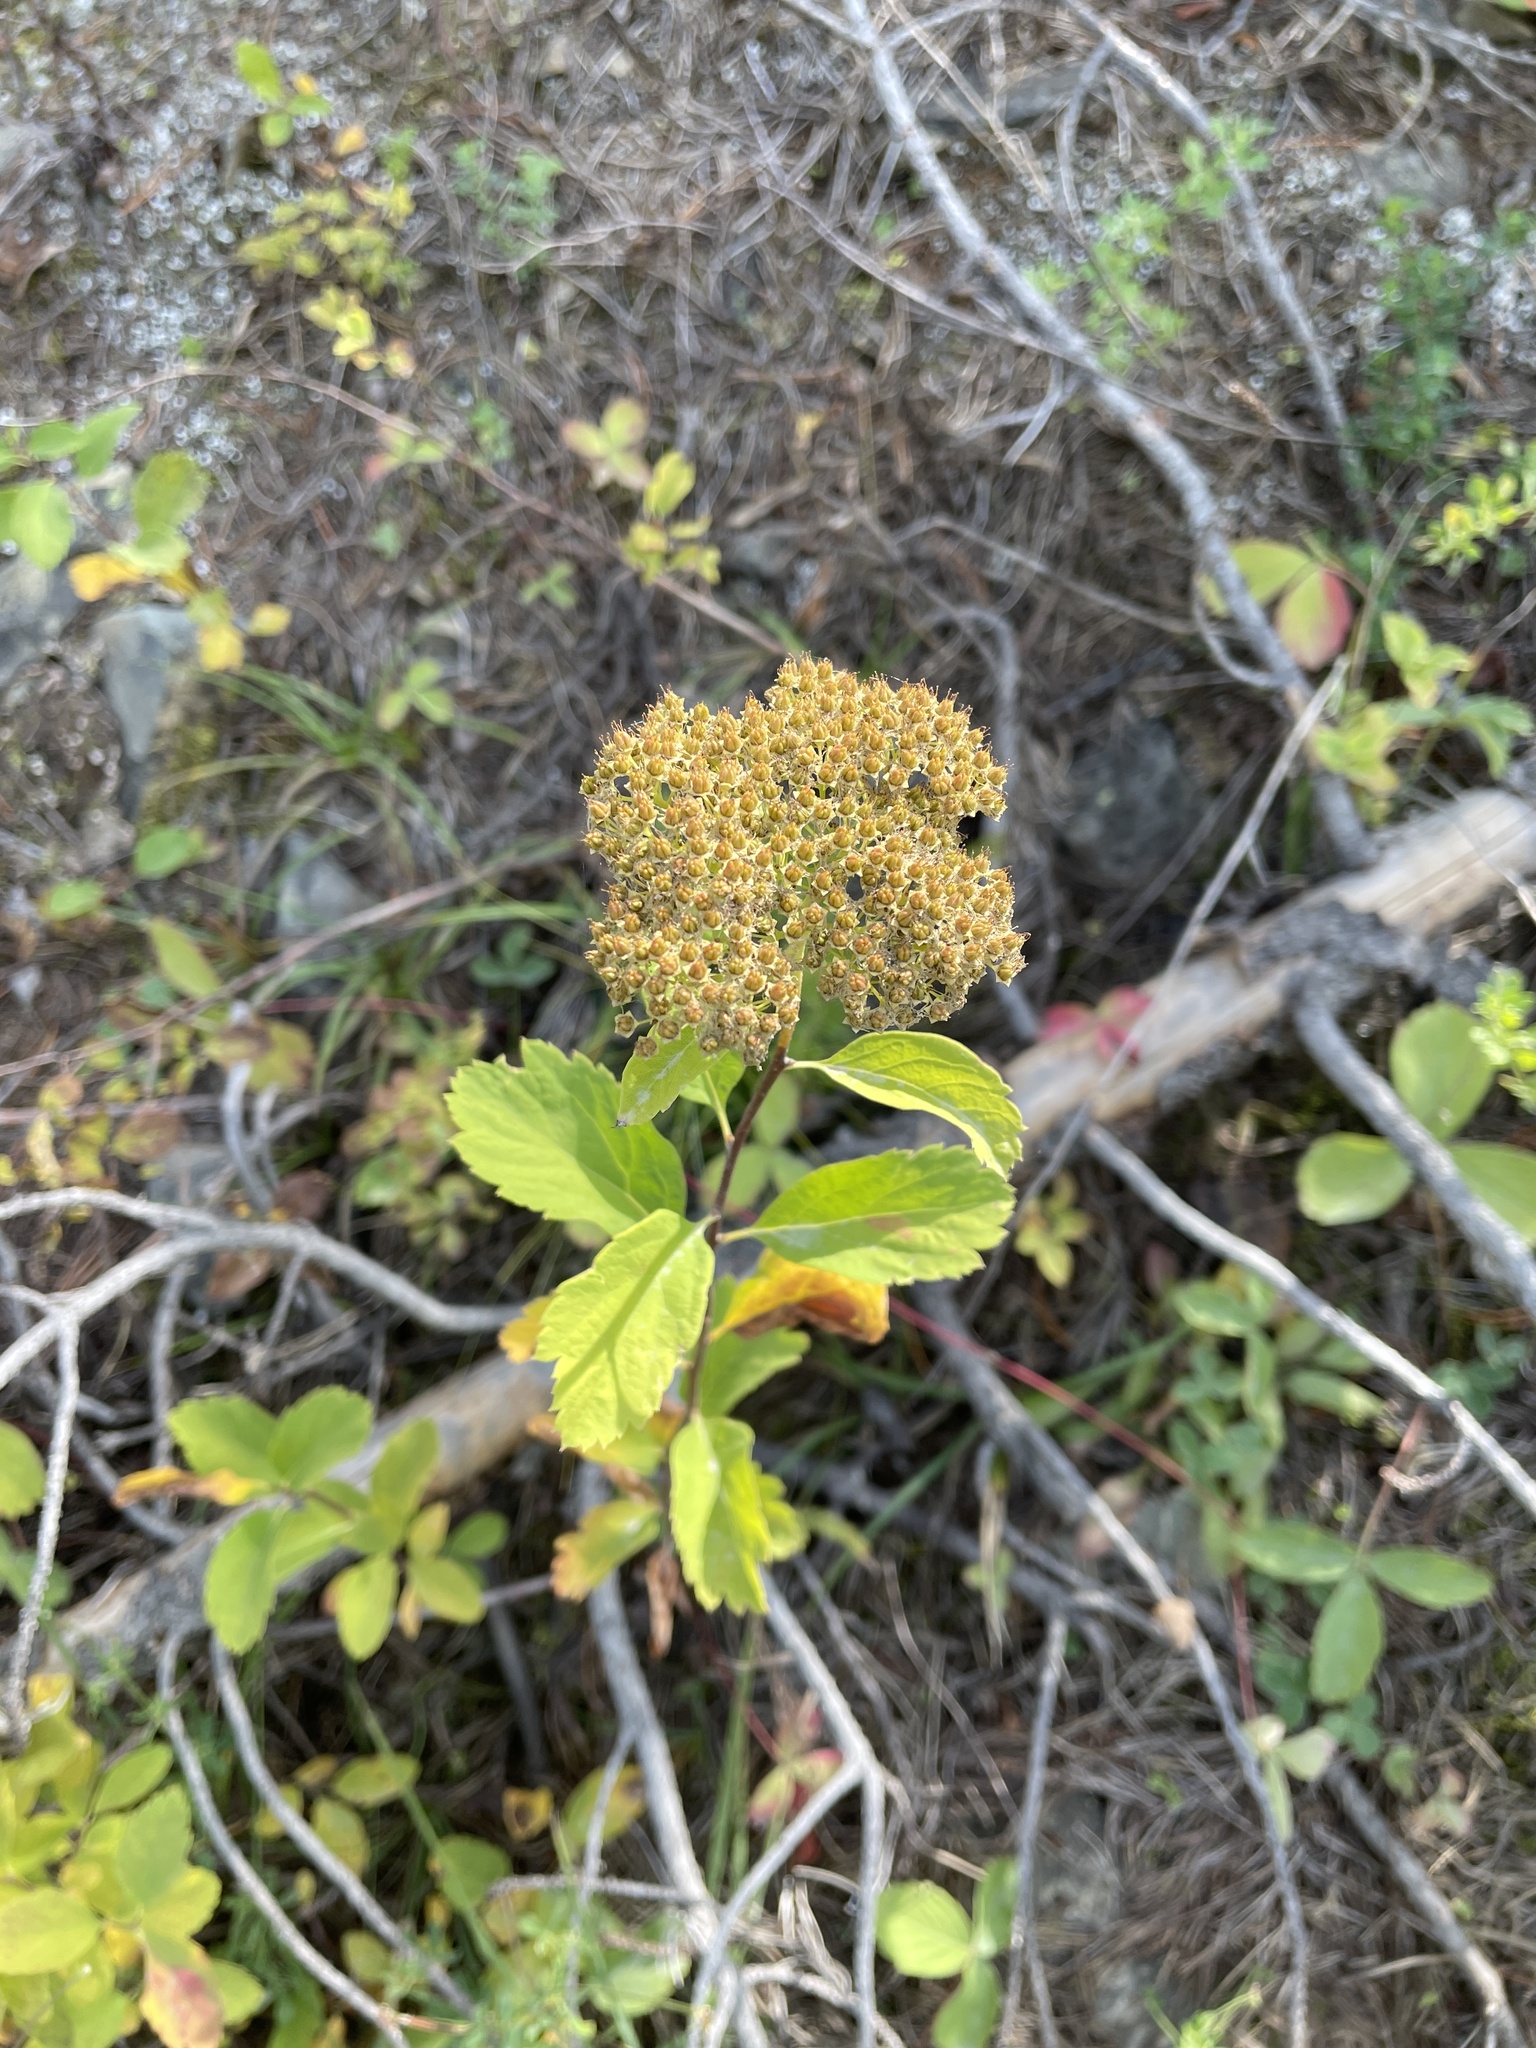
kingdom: Plantae
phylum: Tracheophyta
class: Magnoliopsida
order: Rosales
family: Rosaceae
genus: Spiraea
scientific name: Spiraea lucida
